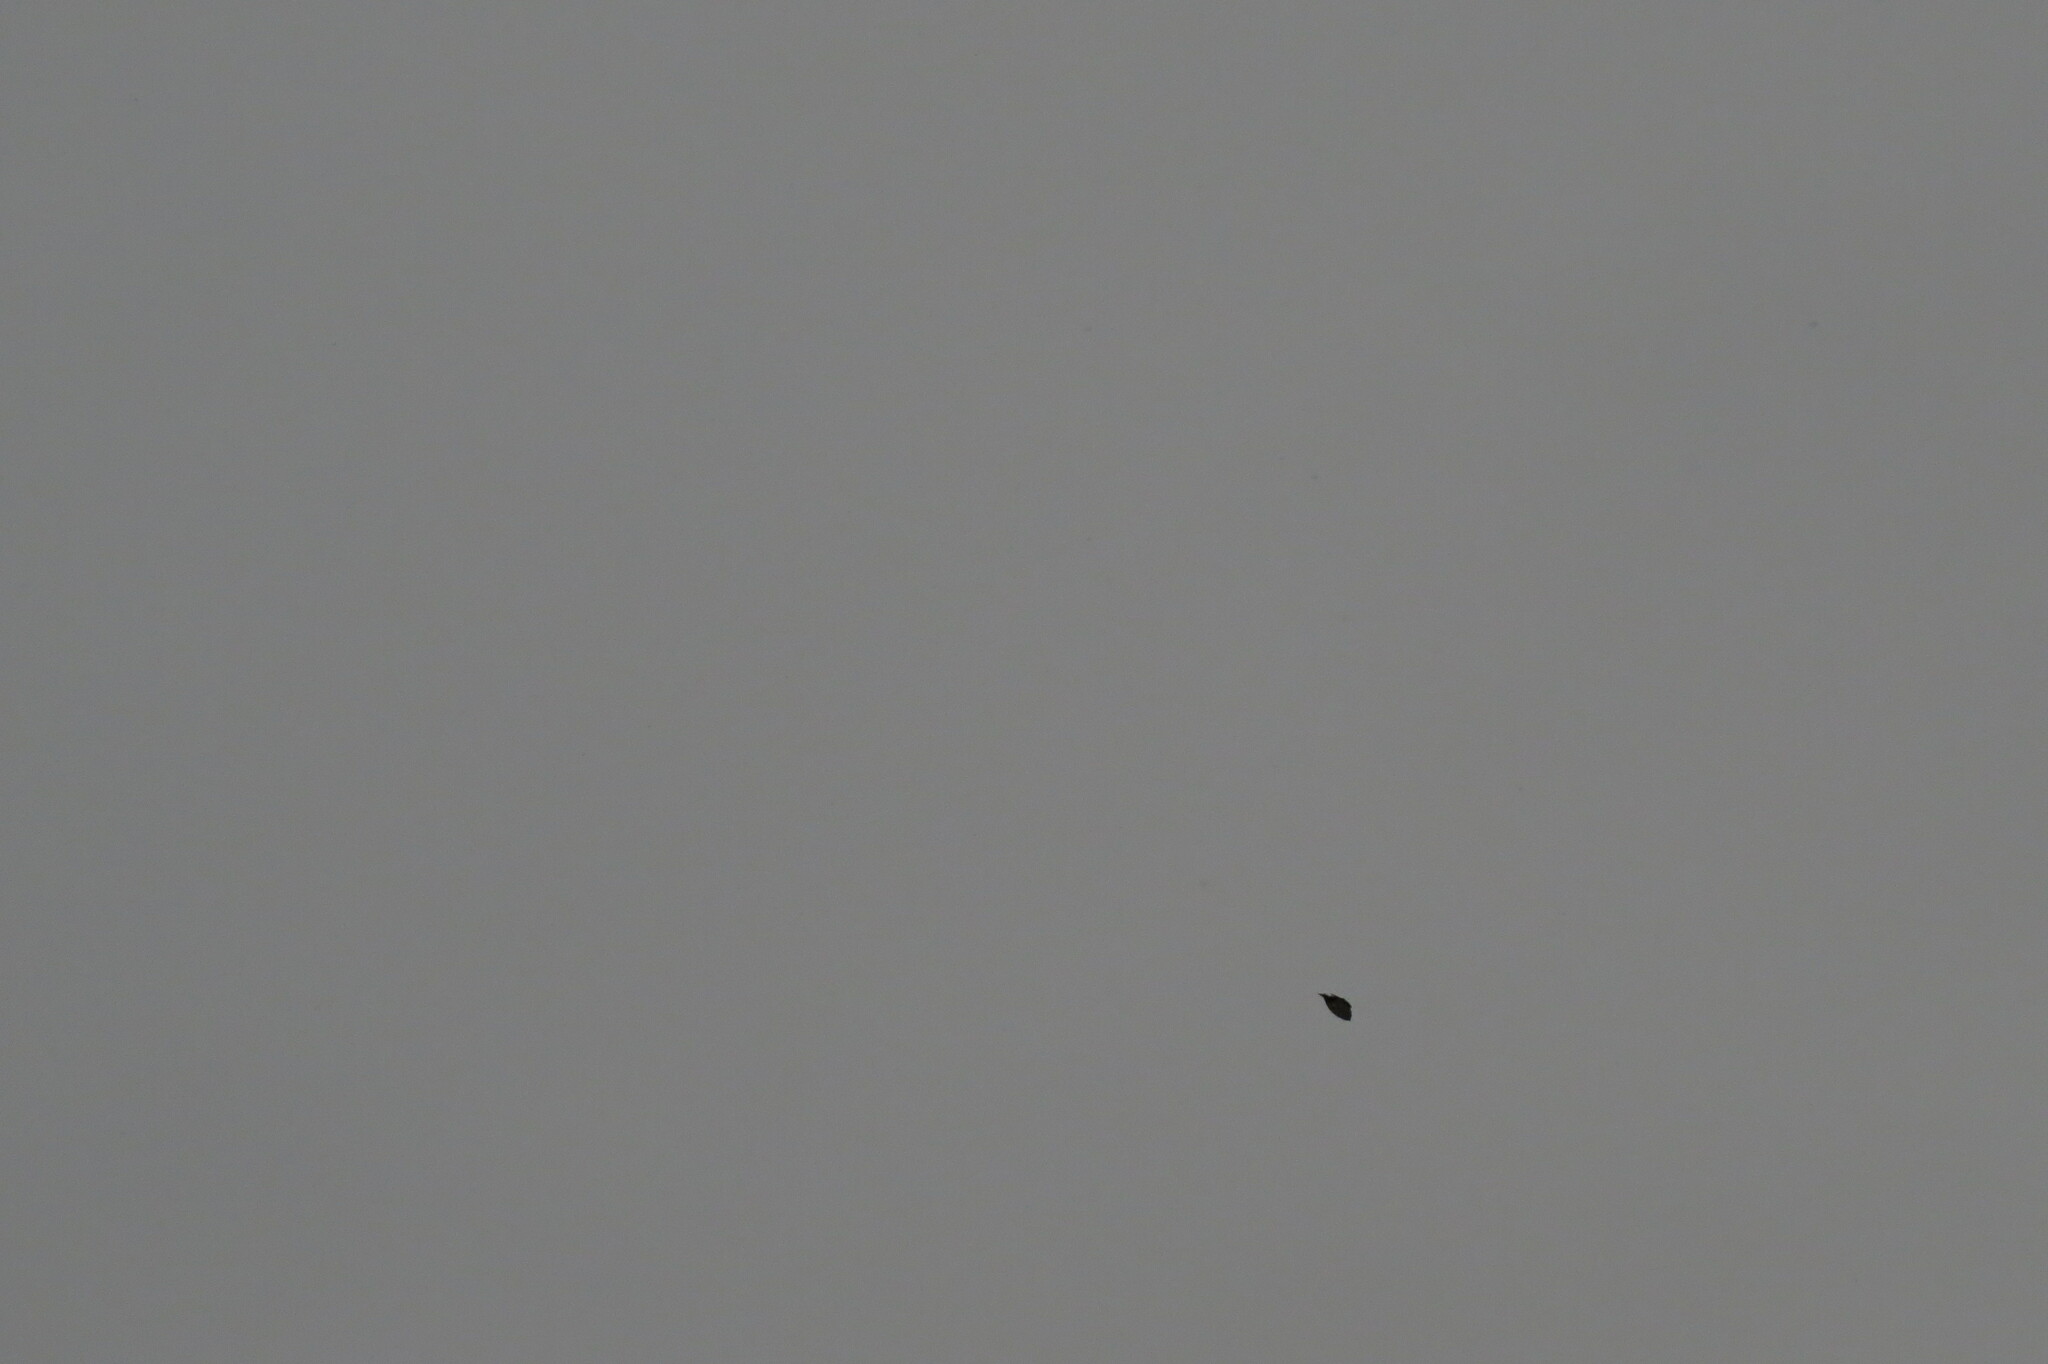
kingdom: Animalia
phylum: Chordata
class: Aves
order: Passeriformes
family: Bombycillidae
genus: Bombycilla
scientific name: Bombycilla garrulus
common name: Bohemian waxwing
